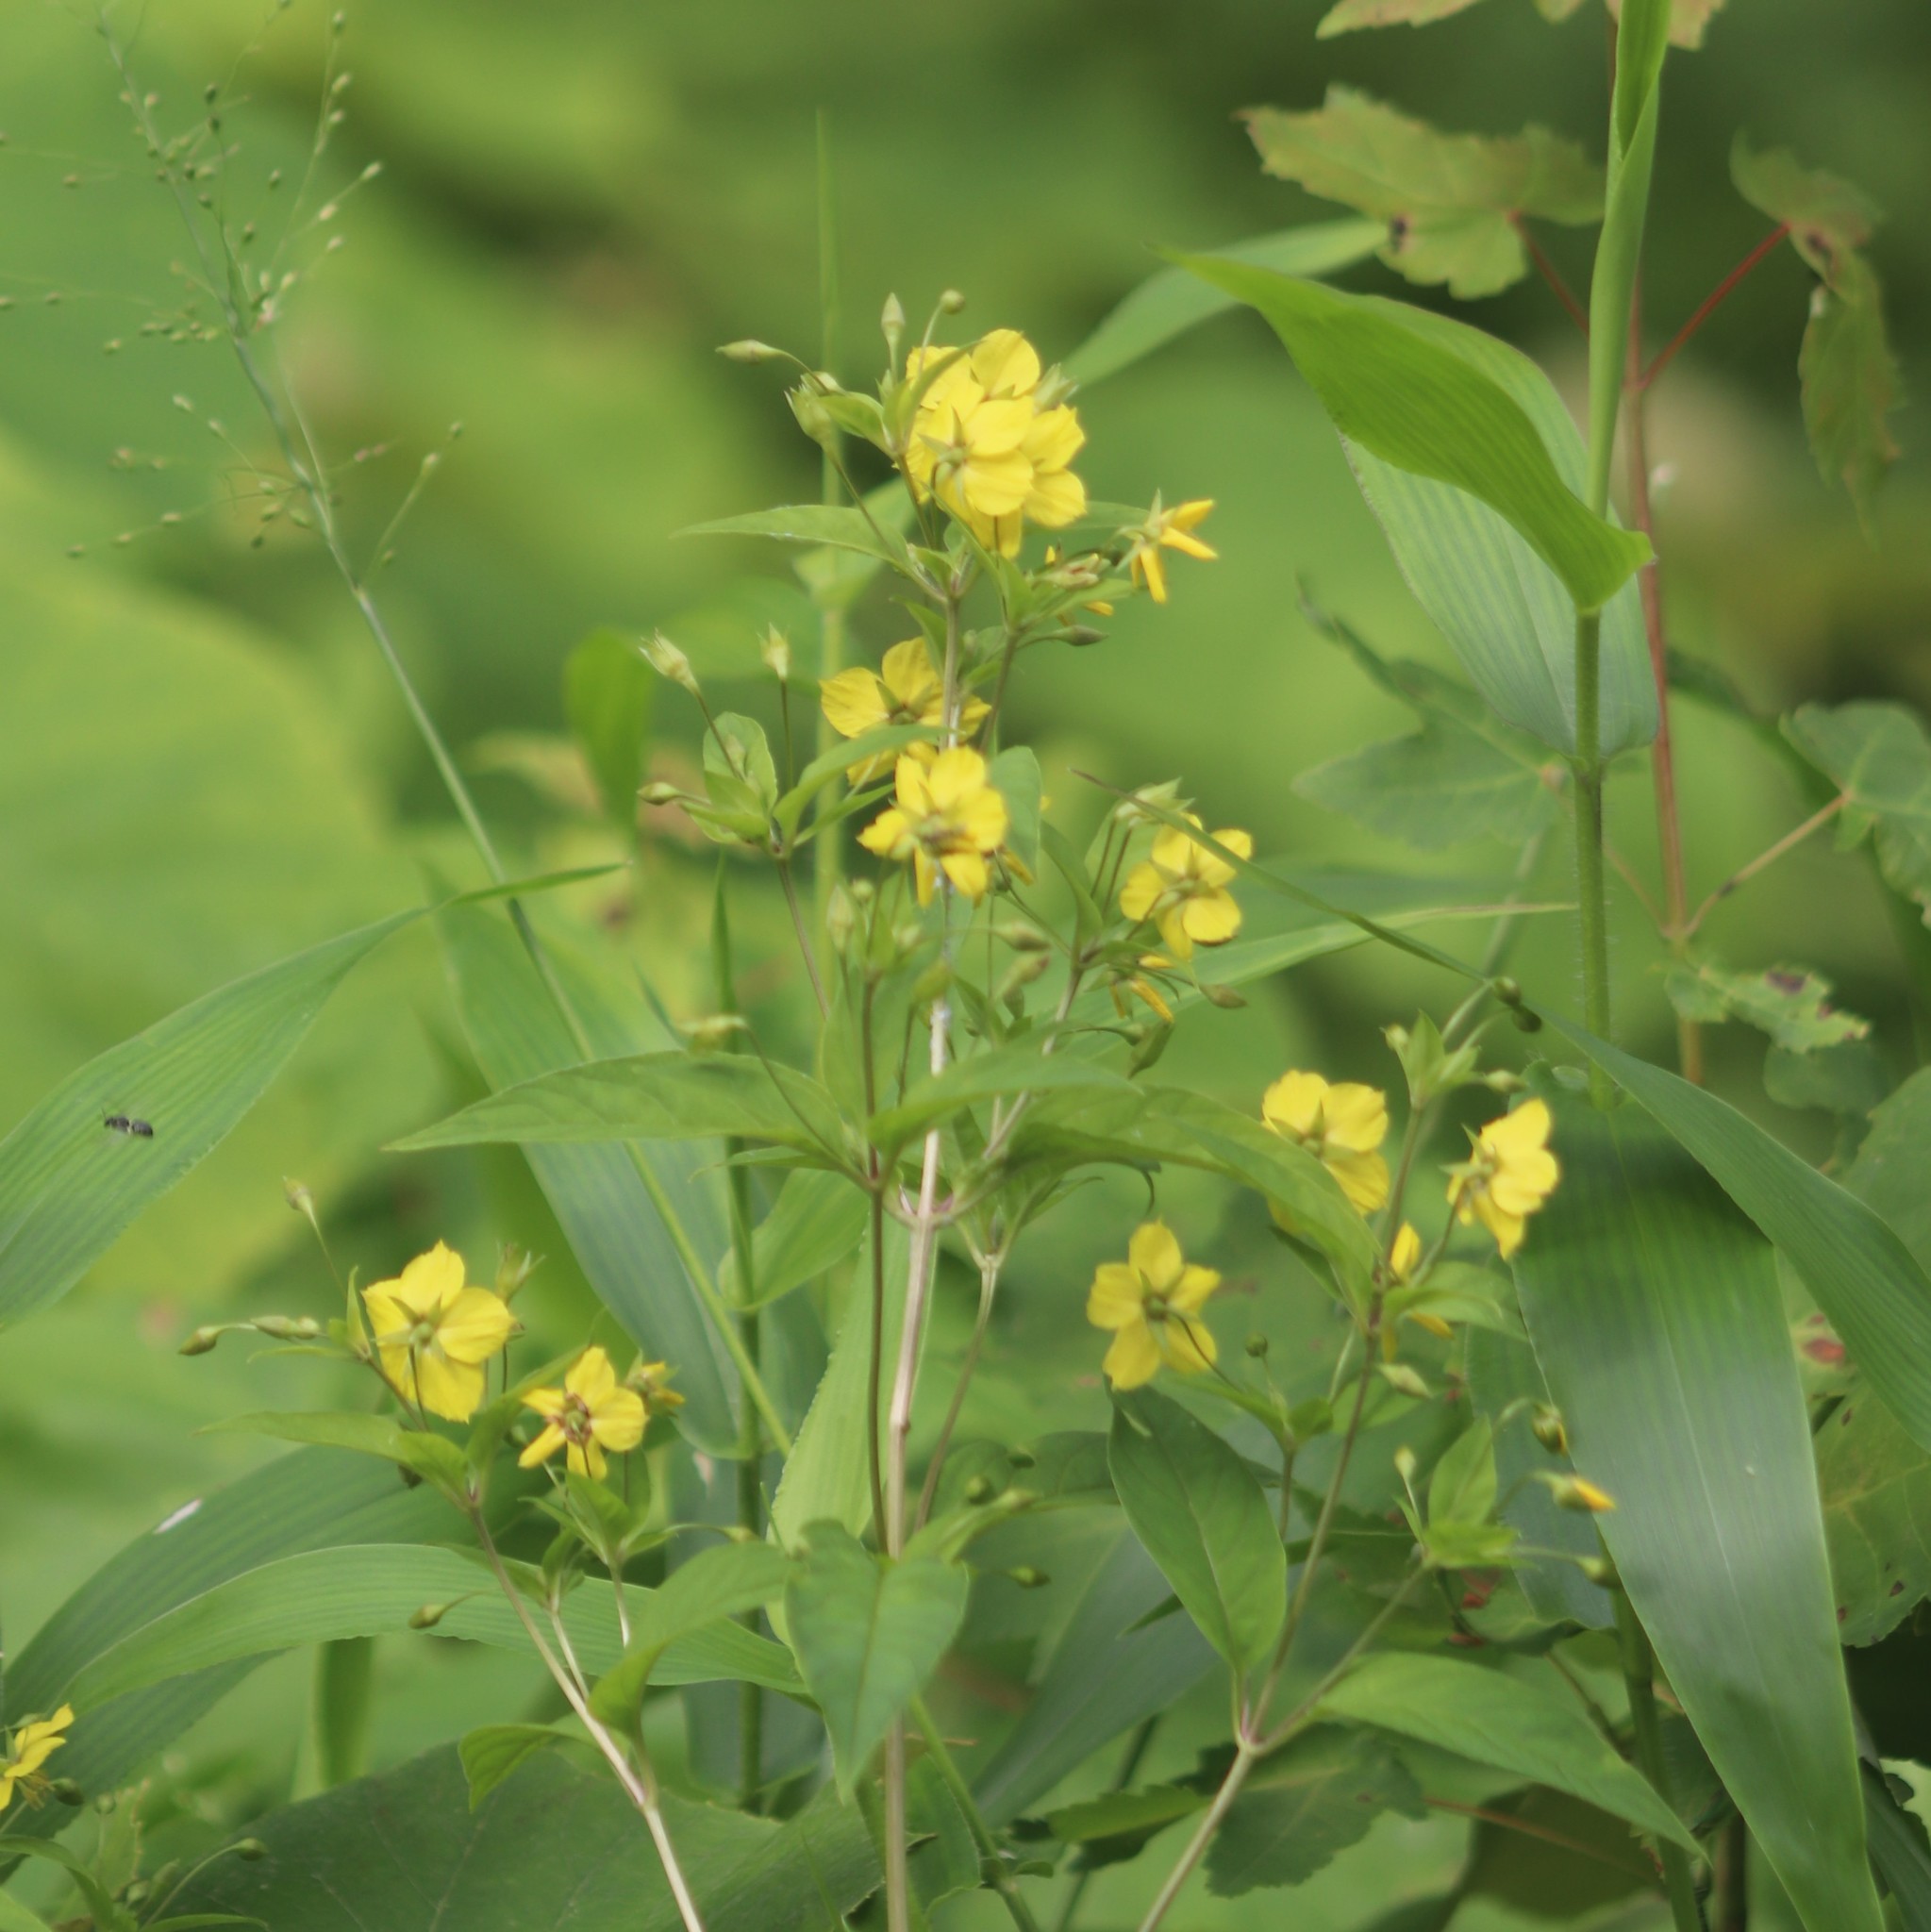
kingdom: Plantae
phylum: Tracheophyta
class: Magnoliopsida
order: Ericales
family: Primulaceae
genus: Lysimachia
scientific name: Lysimachia ciliata
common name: Fringed loosestrife
